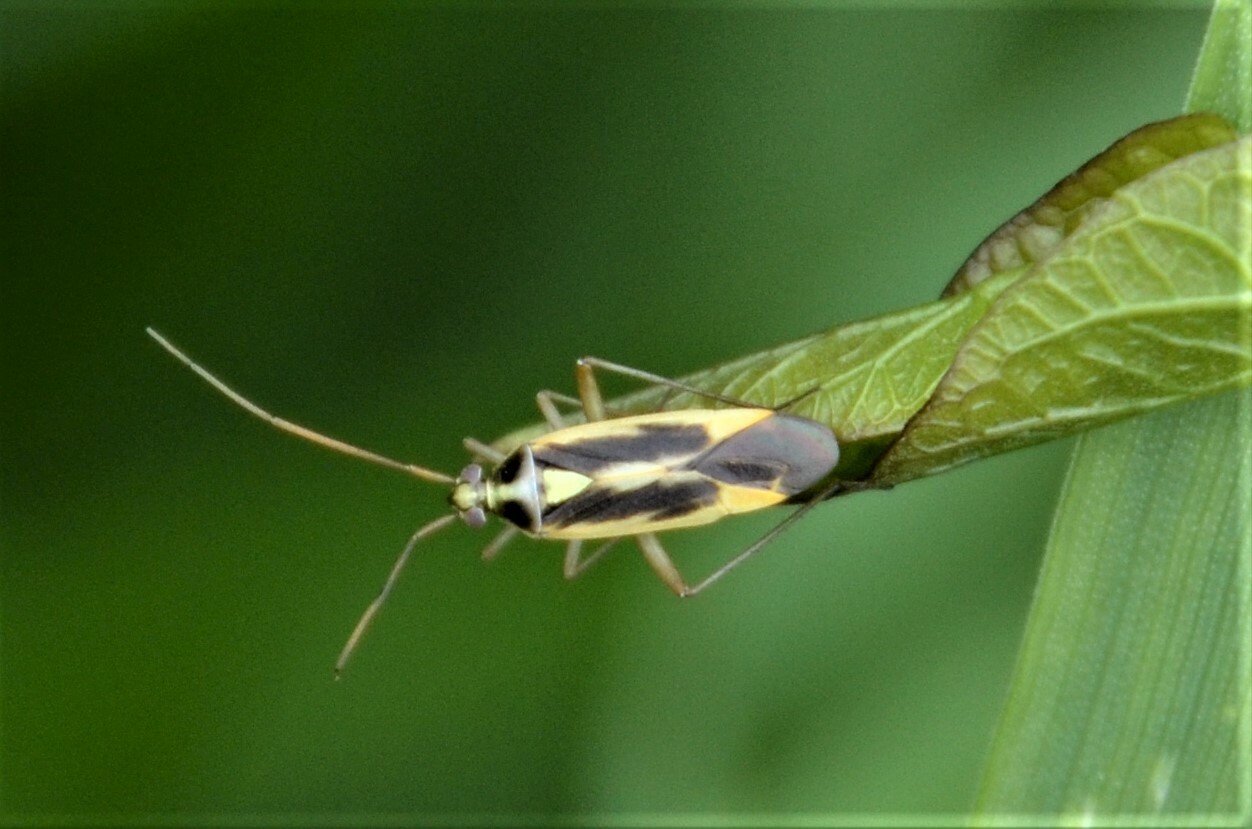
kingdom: Animalia
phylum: Arthropoda
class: Insecta
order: Hemiptera
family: Miridae
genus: Stenotus
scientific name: Stenotus binotatus
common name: Plant bug
